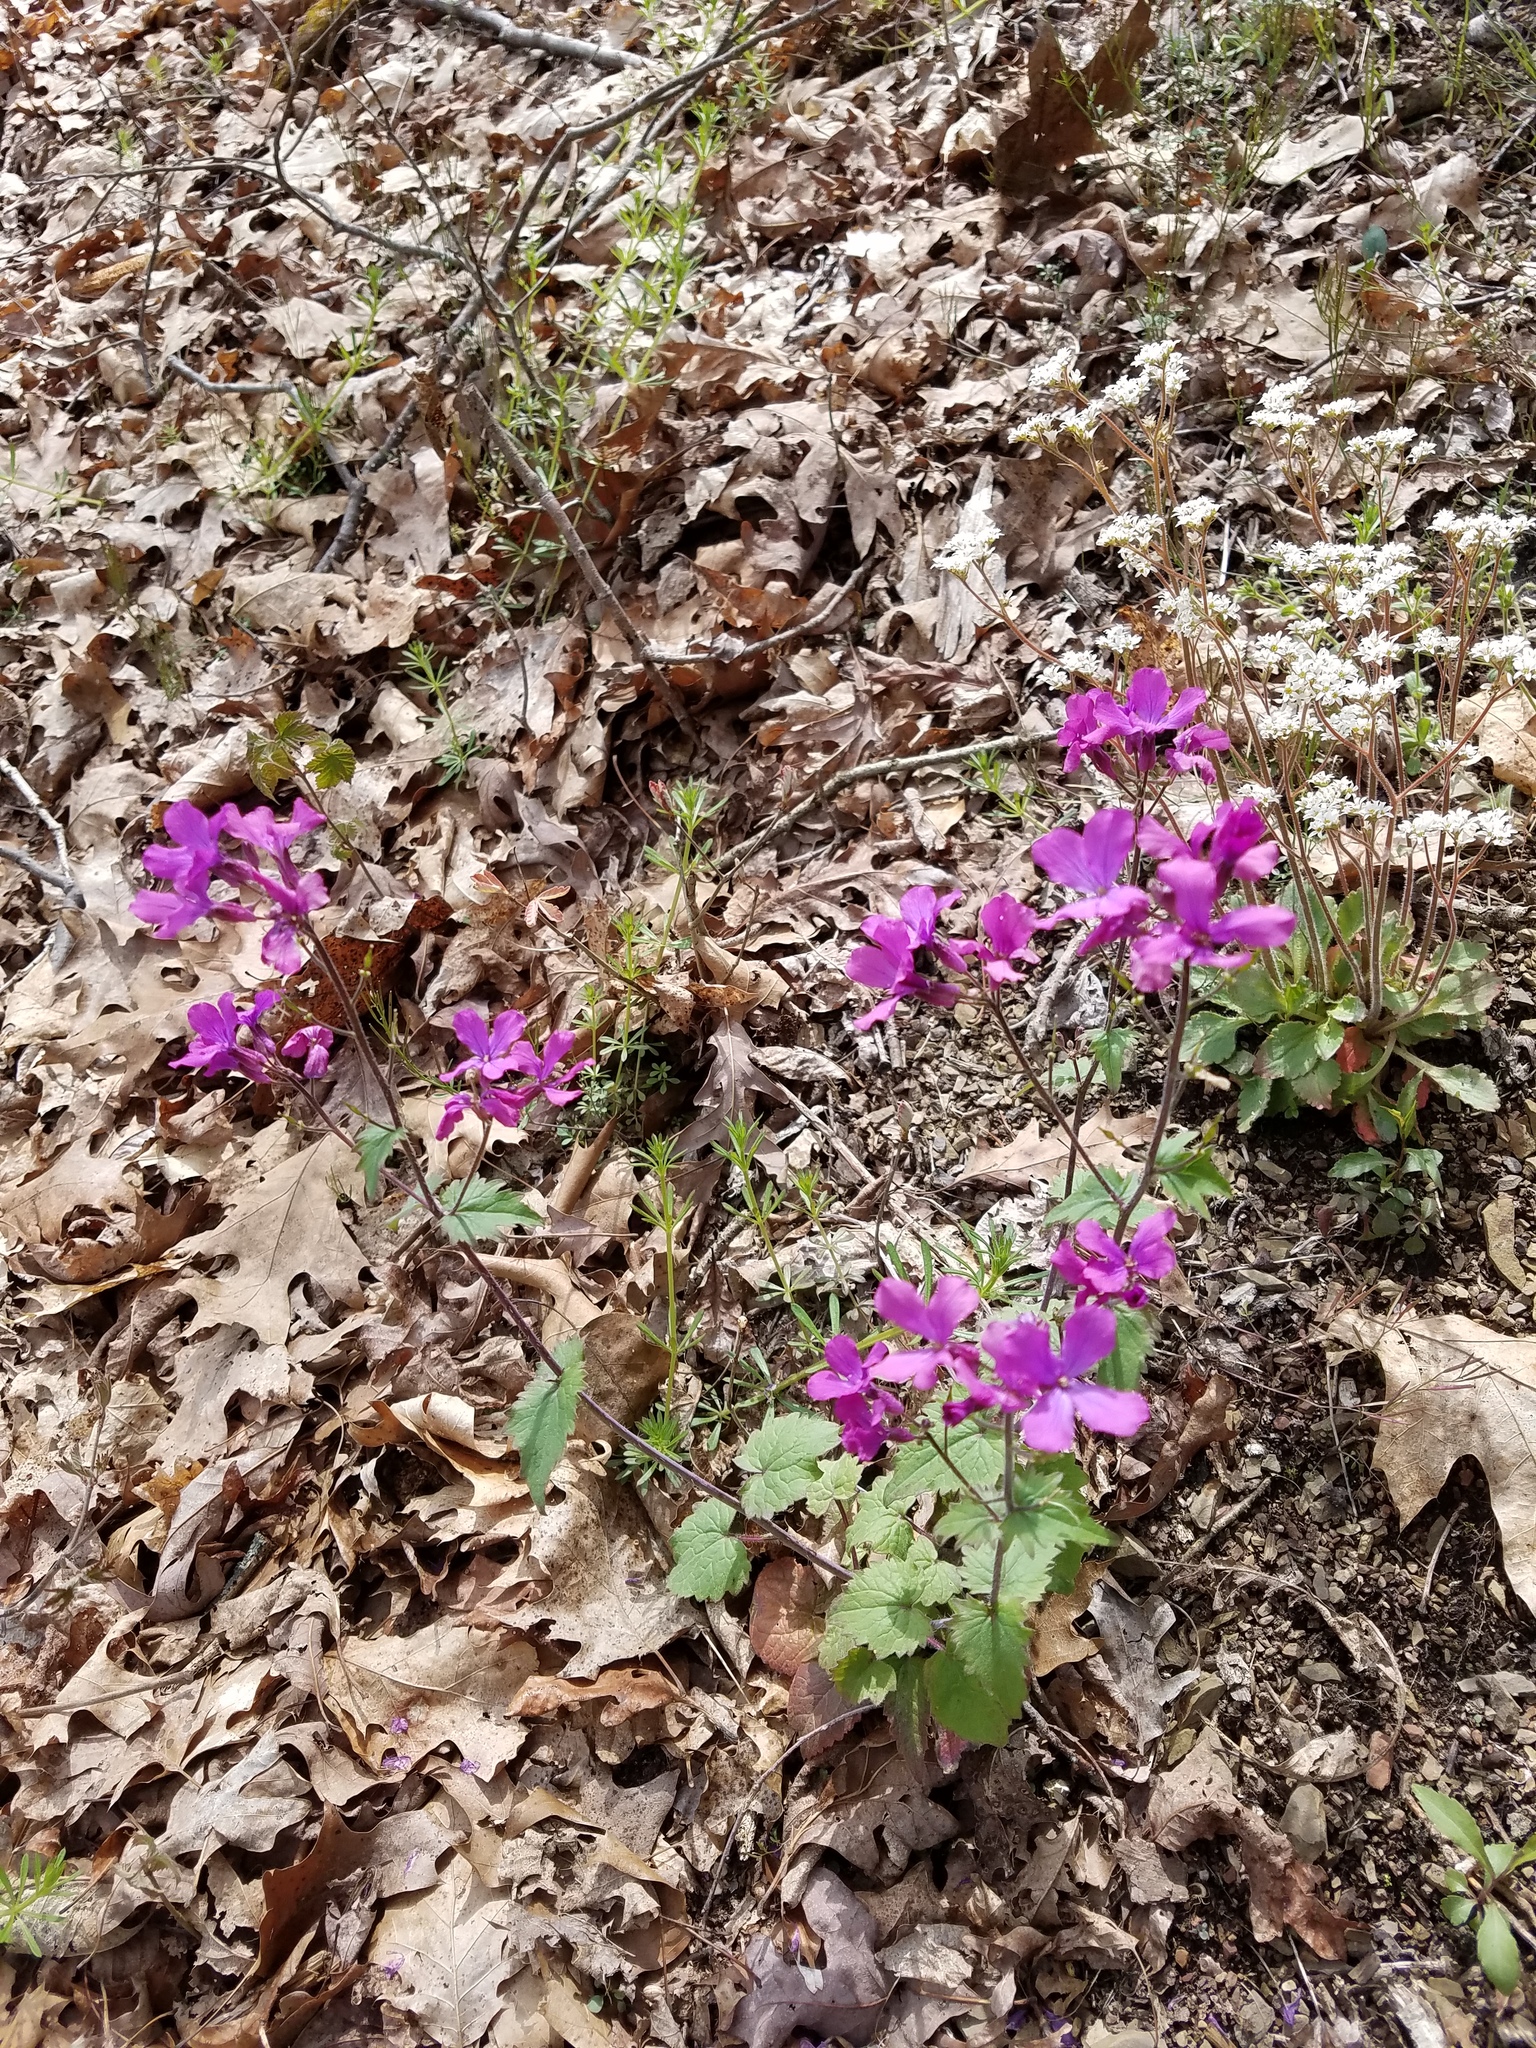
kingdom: Plantae
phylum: Tracheophyta
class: Magnoliopsida
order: Brassicales
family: Brassicaceae
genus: Lunaria
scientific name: Lunaria annua
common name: Honesty
